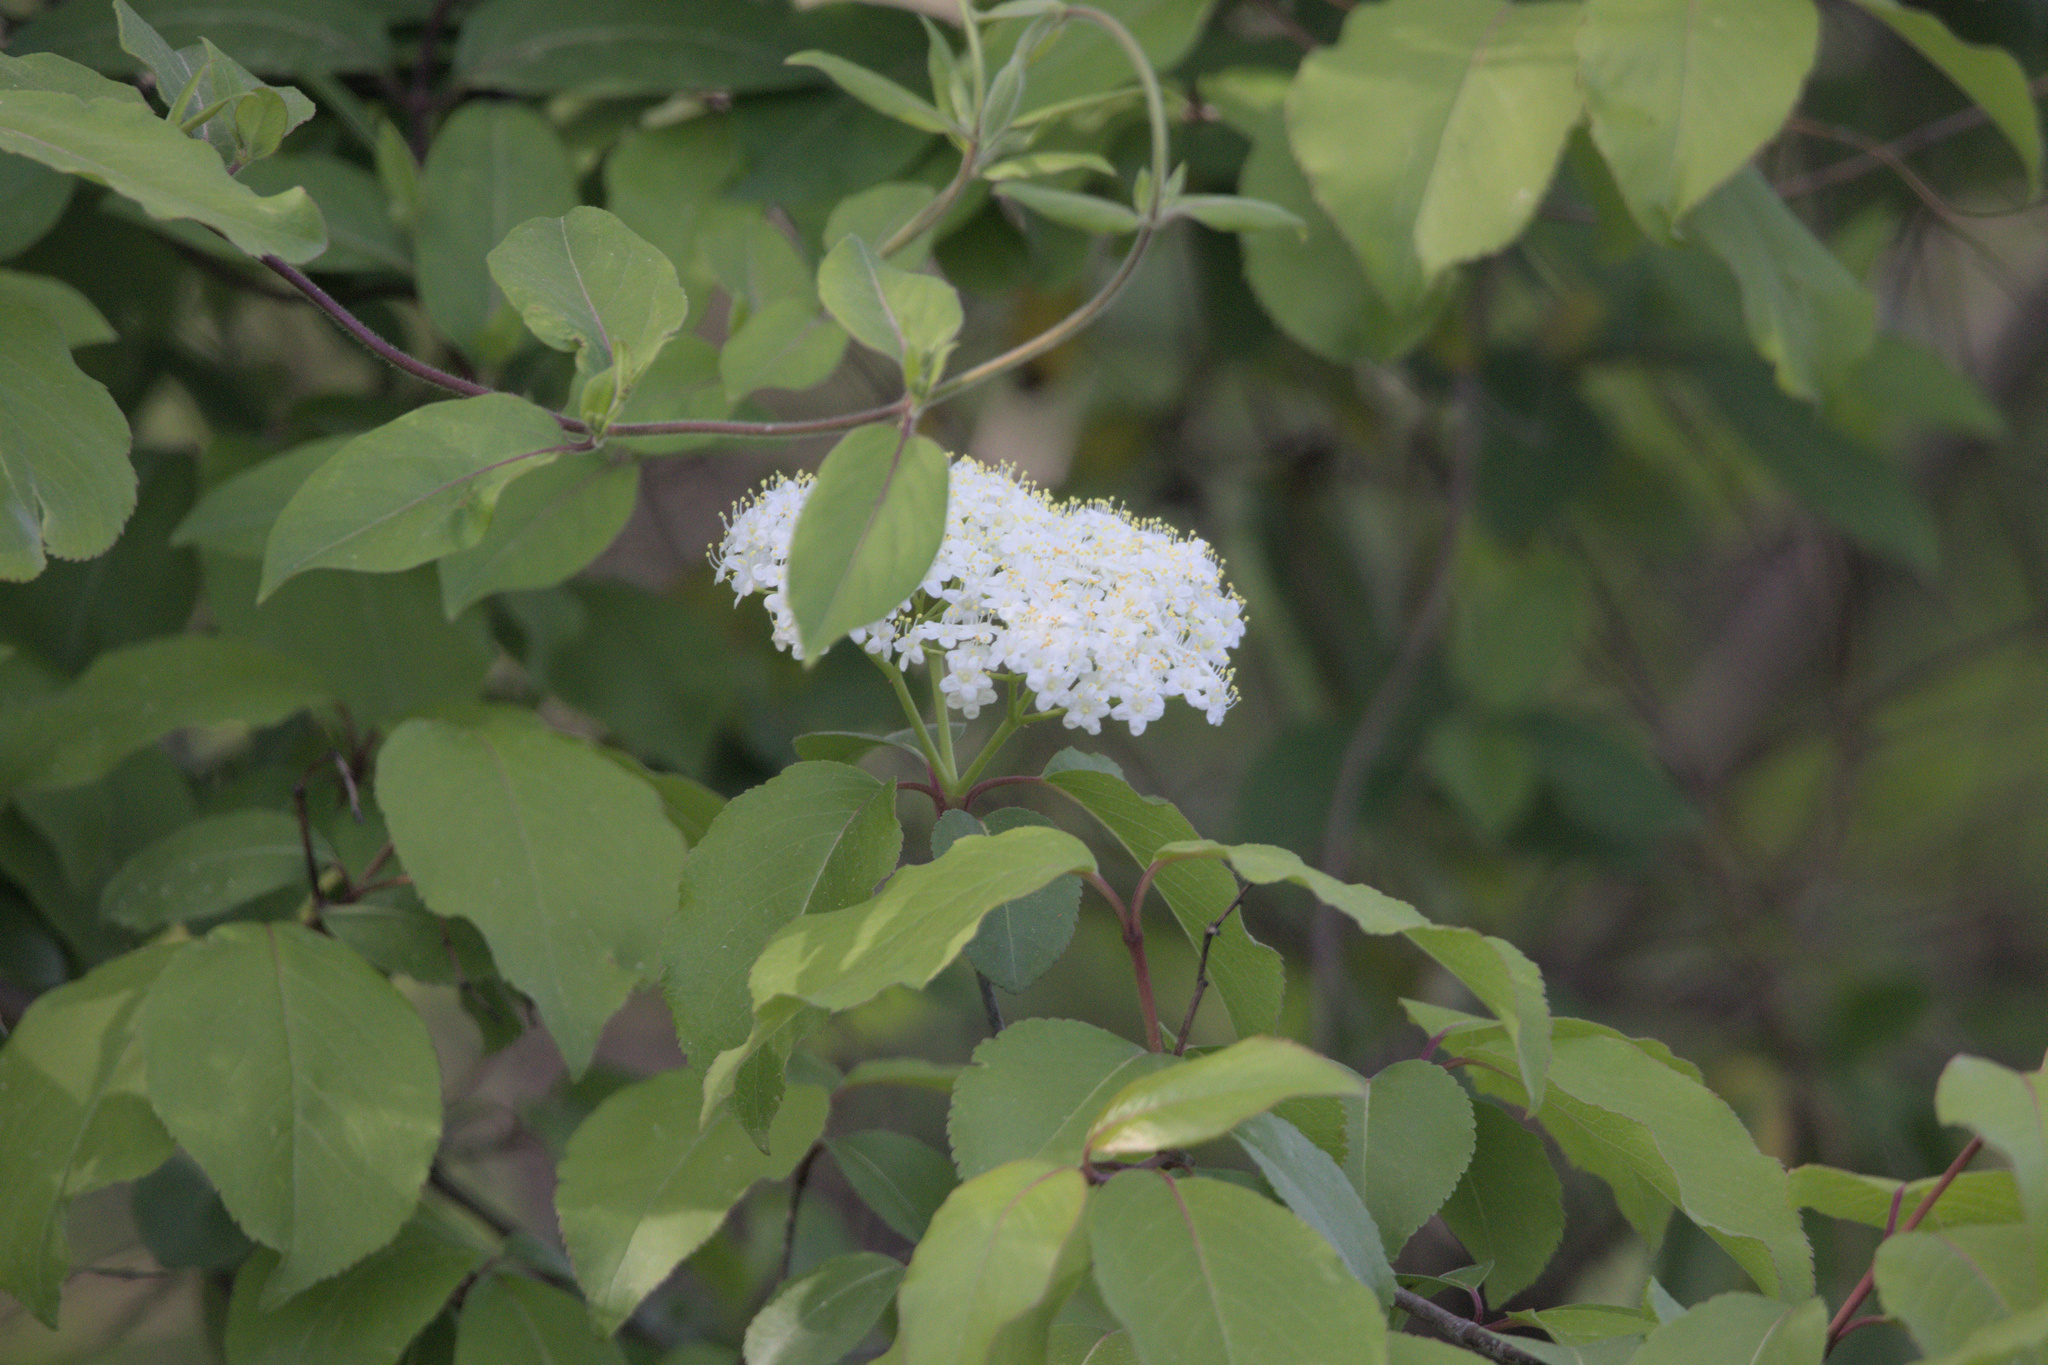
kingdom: Plantae
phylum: Tracheophyta
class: Magnoliopsida
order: Dipsacales
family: Viburnaceae
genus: Viburnum
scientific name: Viburnum prunifolium
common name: Black haw
